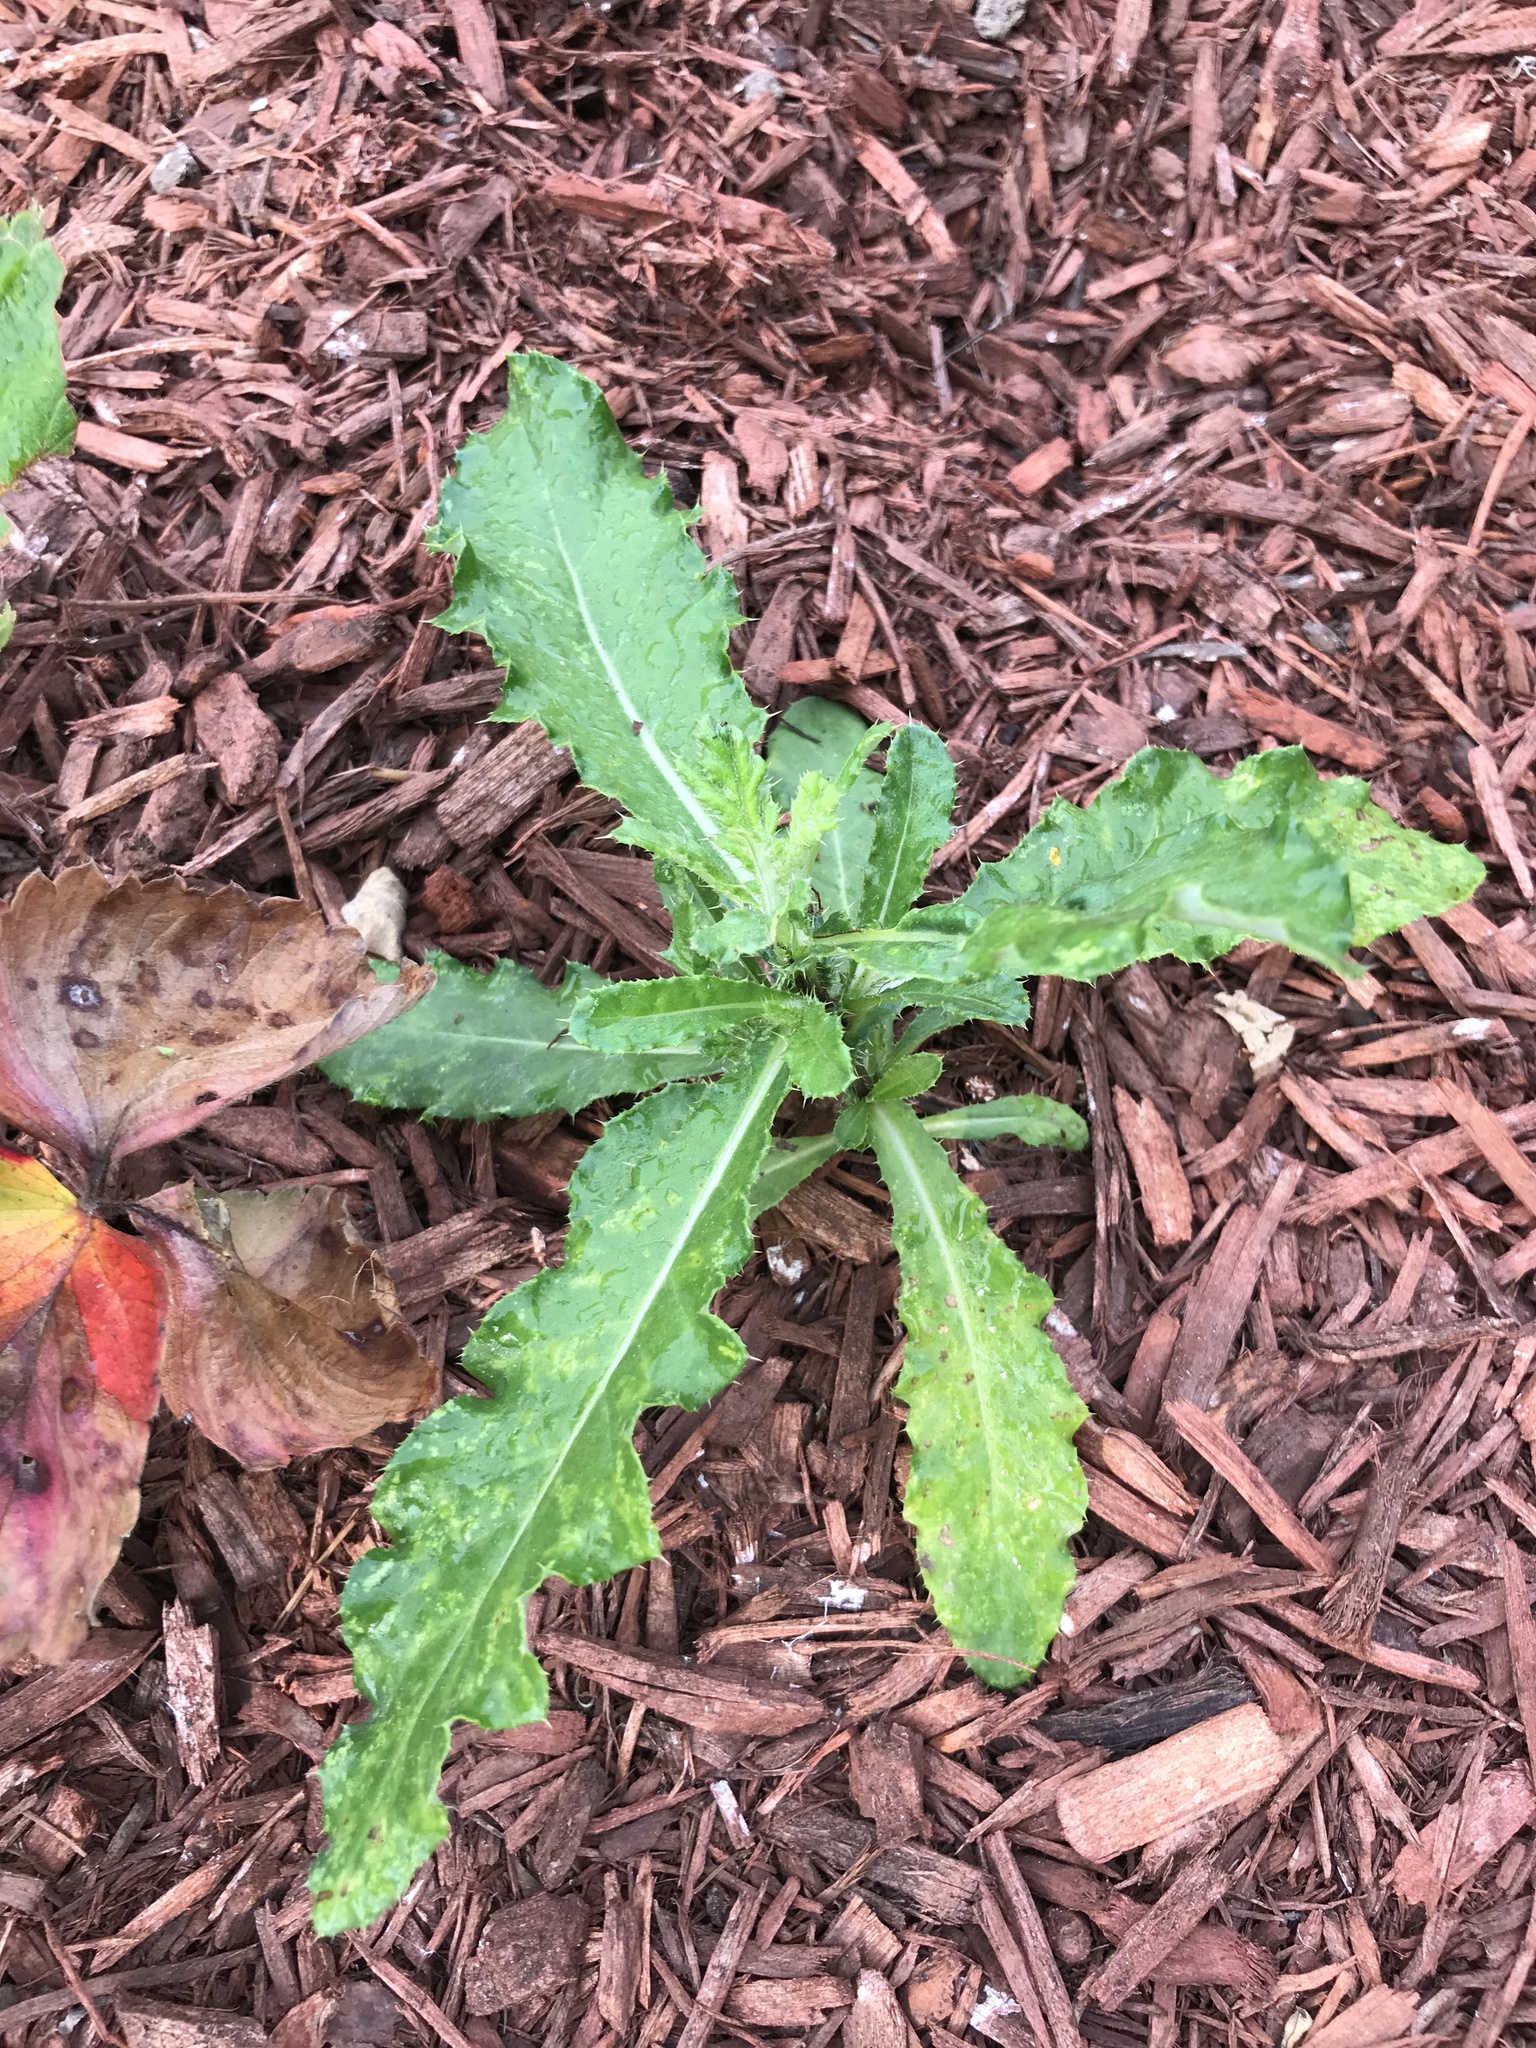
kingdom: Plantae
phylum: Tracheophyta
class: Magnoliopsida
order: Asterales
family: Asteraceae
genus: Cirsium
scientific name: Cirsium arvense
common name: Creeping thistle
